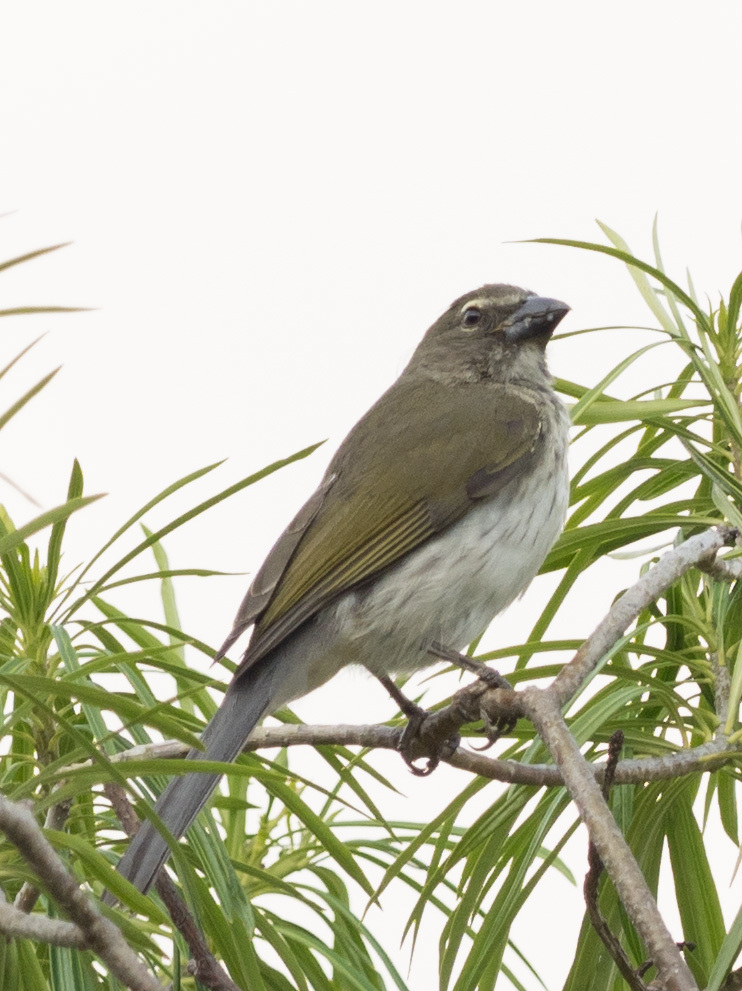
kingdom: Animalia
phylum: Chordata
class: Aves
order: Passeriformes
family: Thraupidae
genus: Saltator
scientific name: Saltator striatipectus
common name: Streaked saltator
